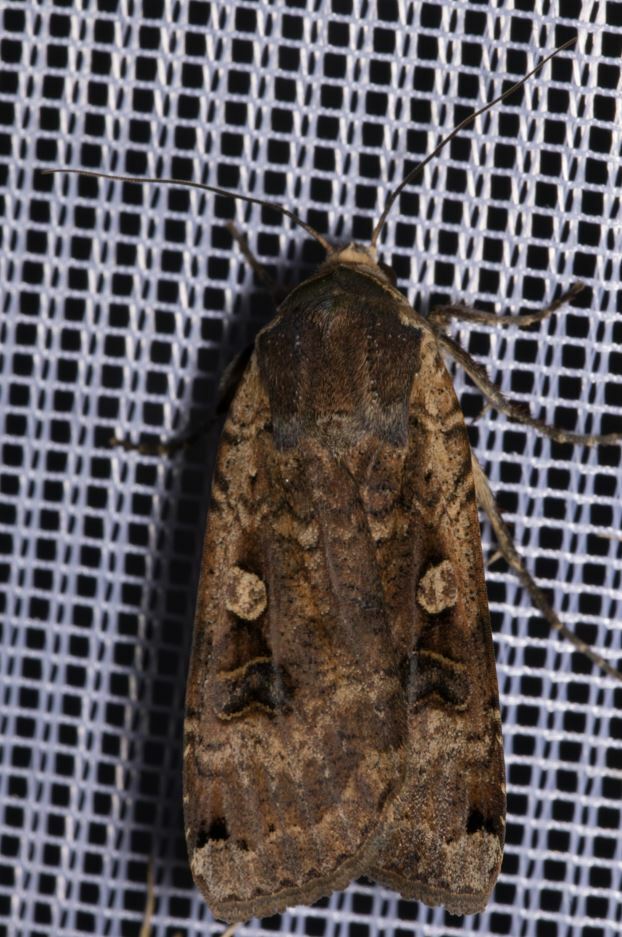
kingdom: Animalia
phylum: Arthropoda
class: Insecta
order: Lepidoptera
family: Noctuidae
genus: Noctua
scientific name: Noctua pronuba
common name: Large yellow underwing
